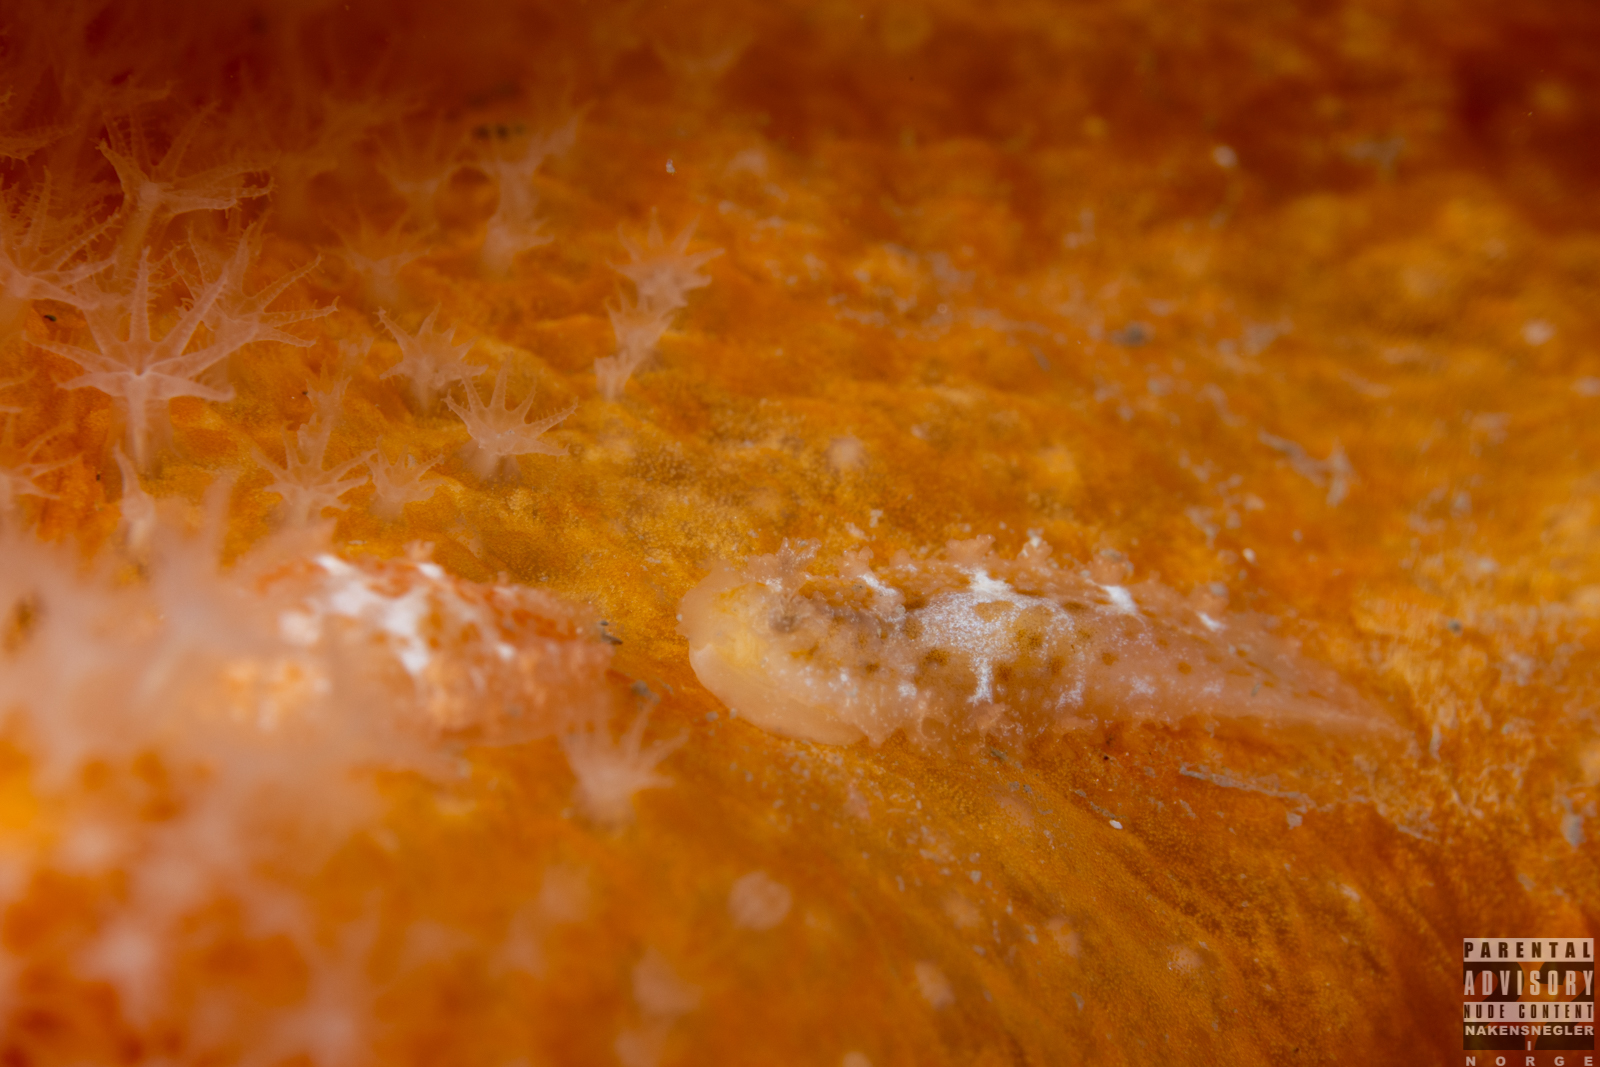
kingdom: Animalia
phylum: Mollusca
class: Gastropoda
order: Nudibranchia
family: Tritoniidae
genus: Tritonia
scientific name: Tritonia hombergii
